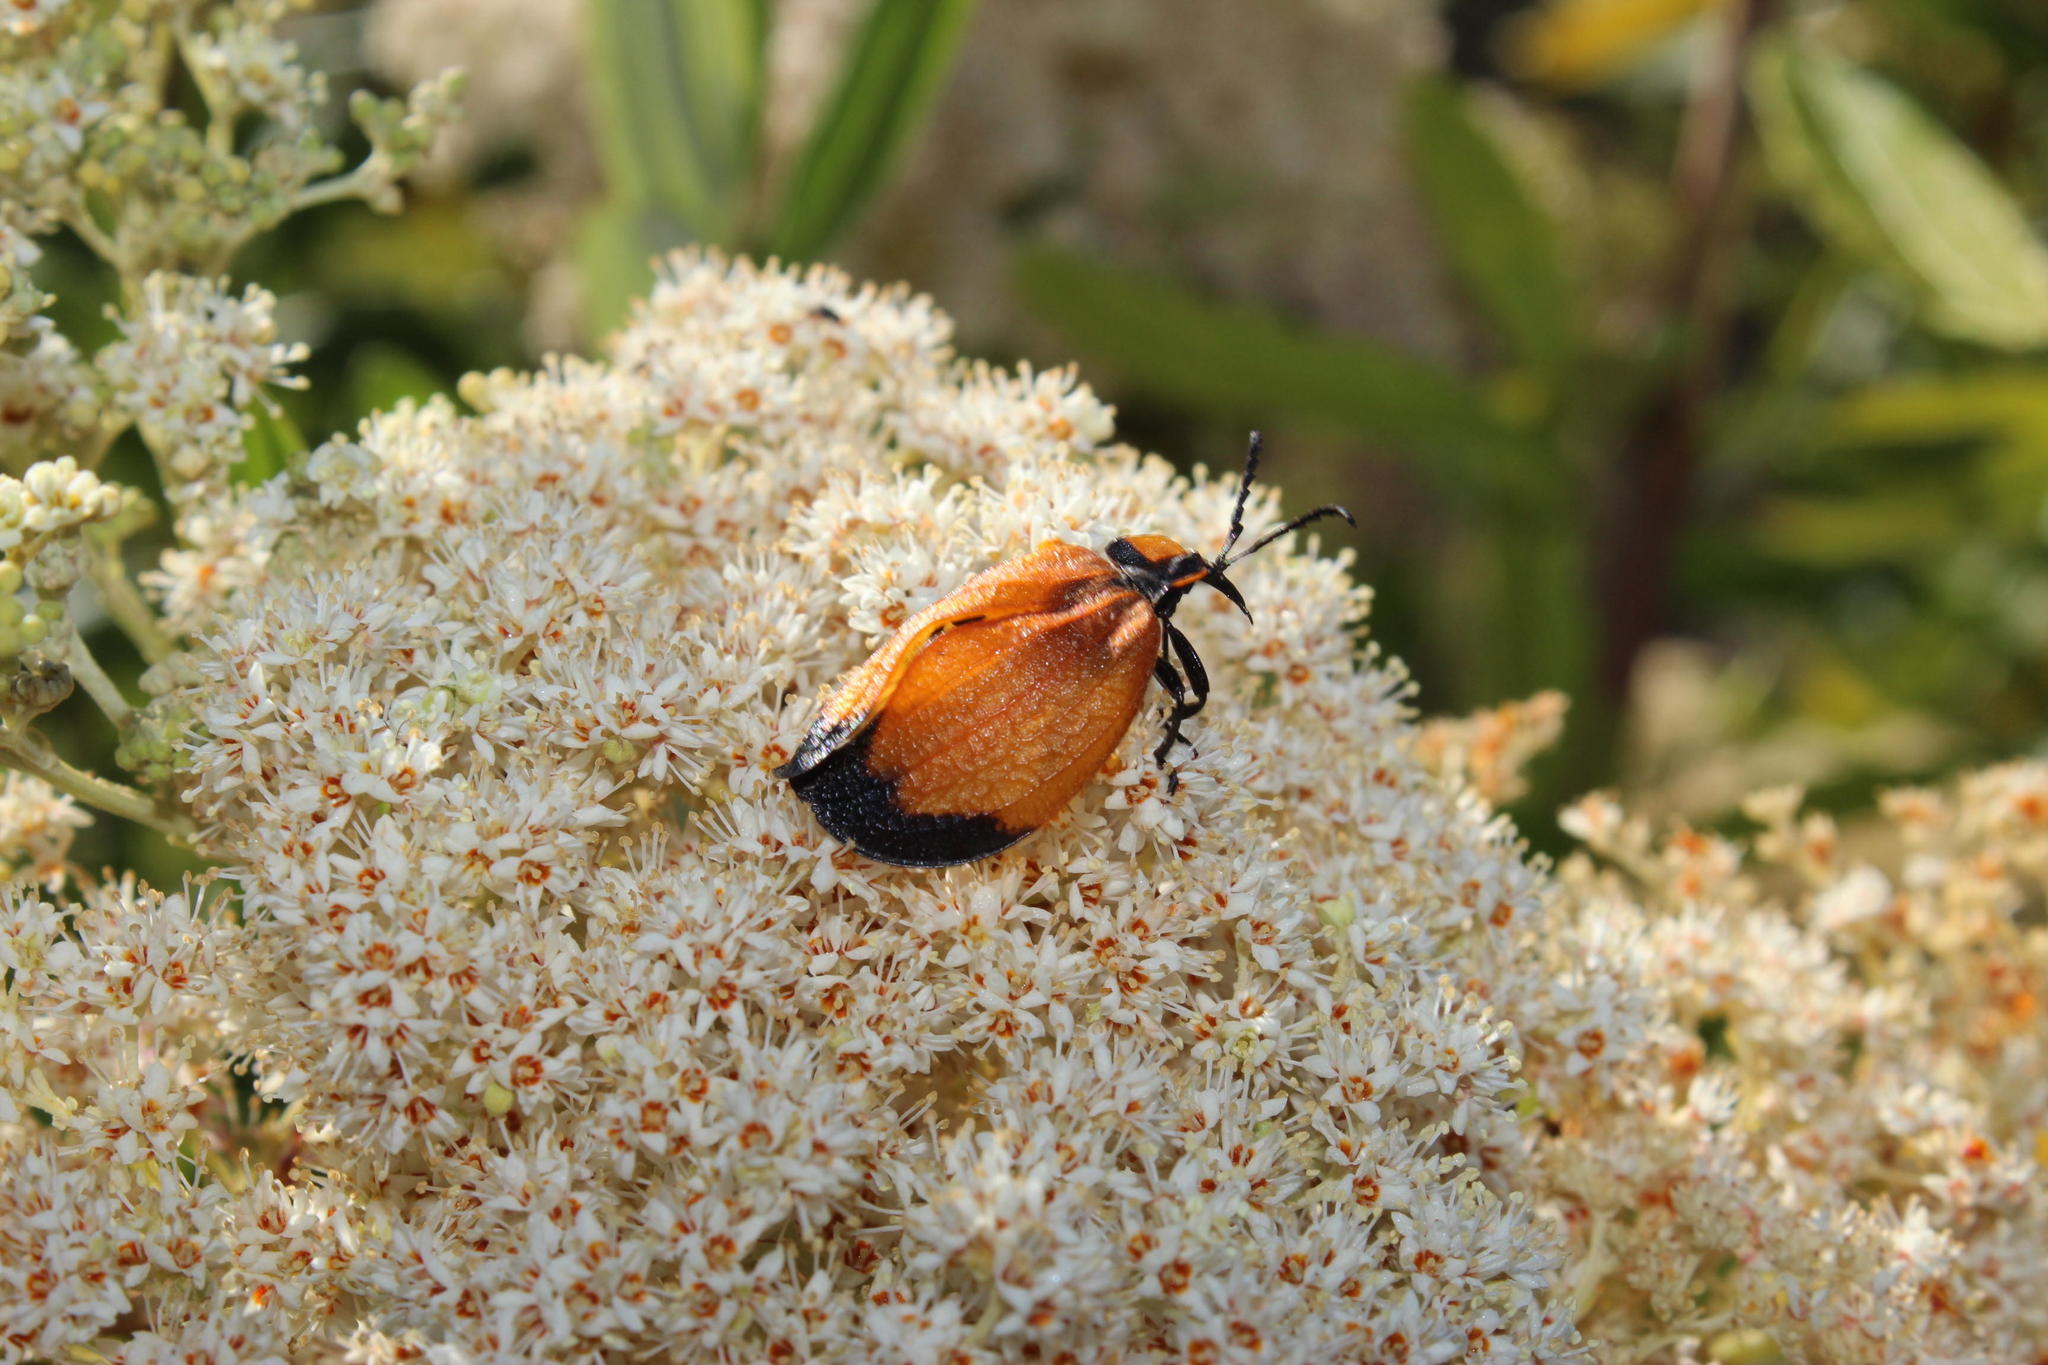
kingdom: Animalia
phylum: Arthropoda
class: Insecta
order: Coleoptera
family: Lycidae
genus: Lycus
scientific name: Lycus
